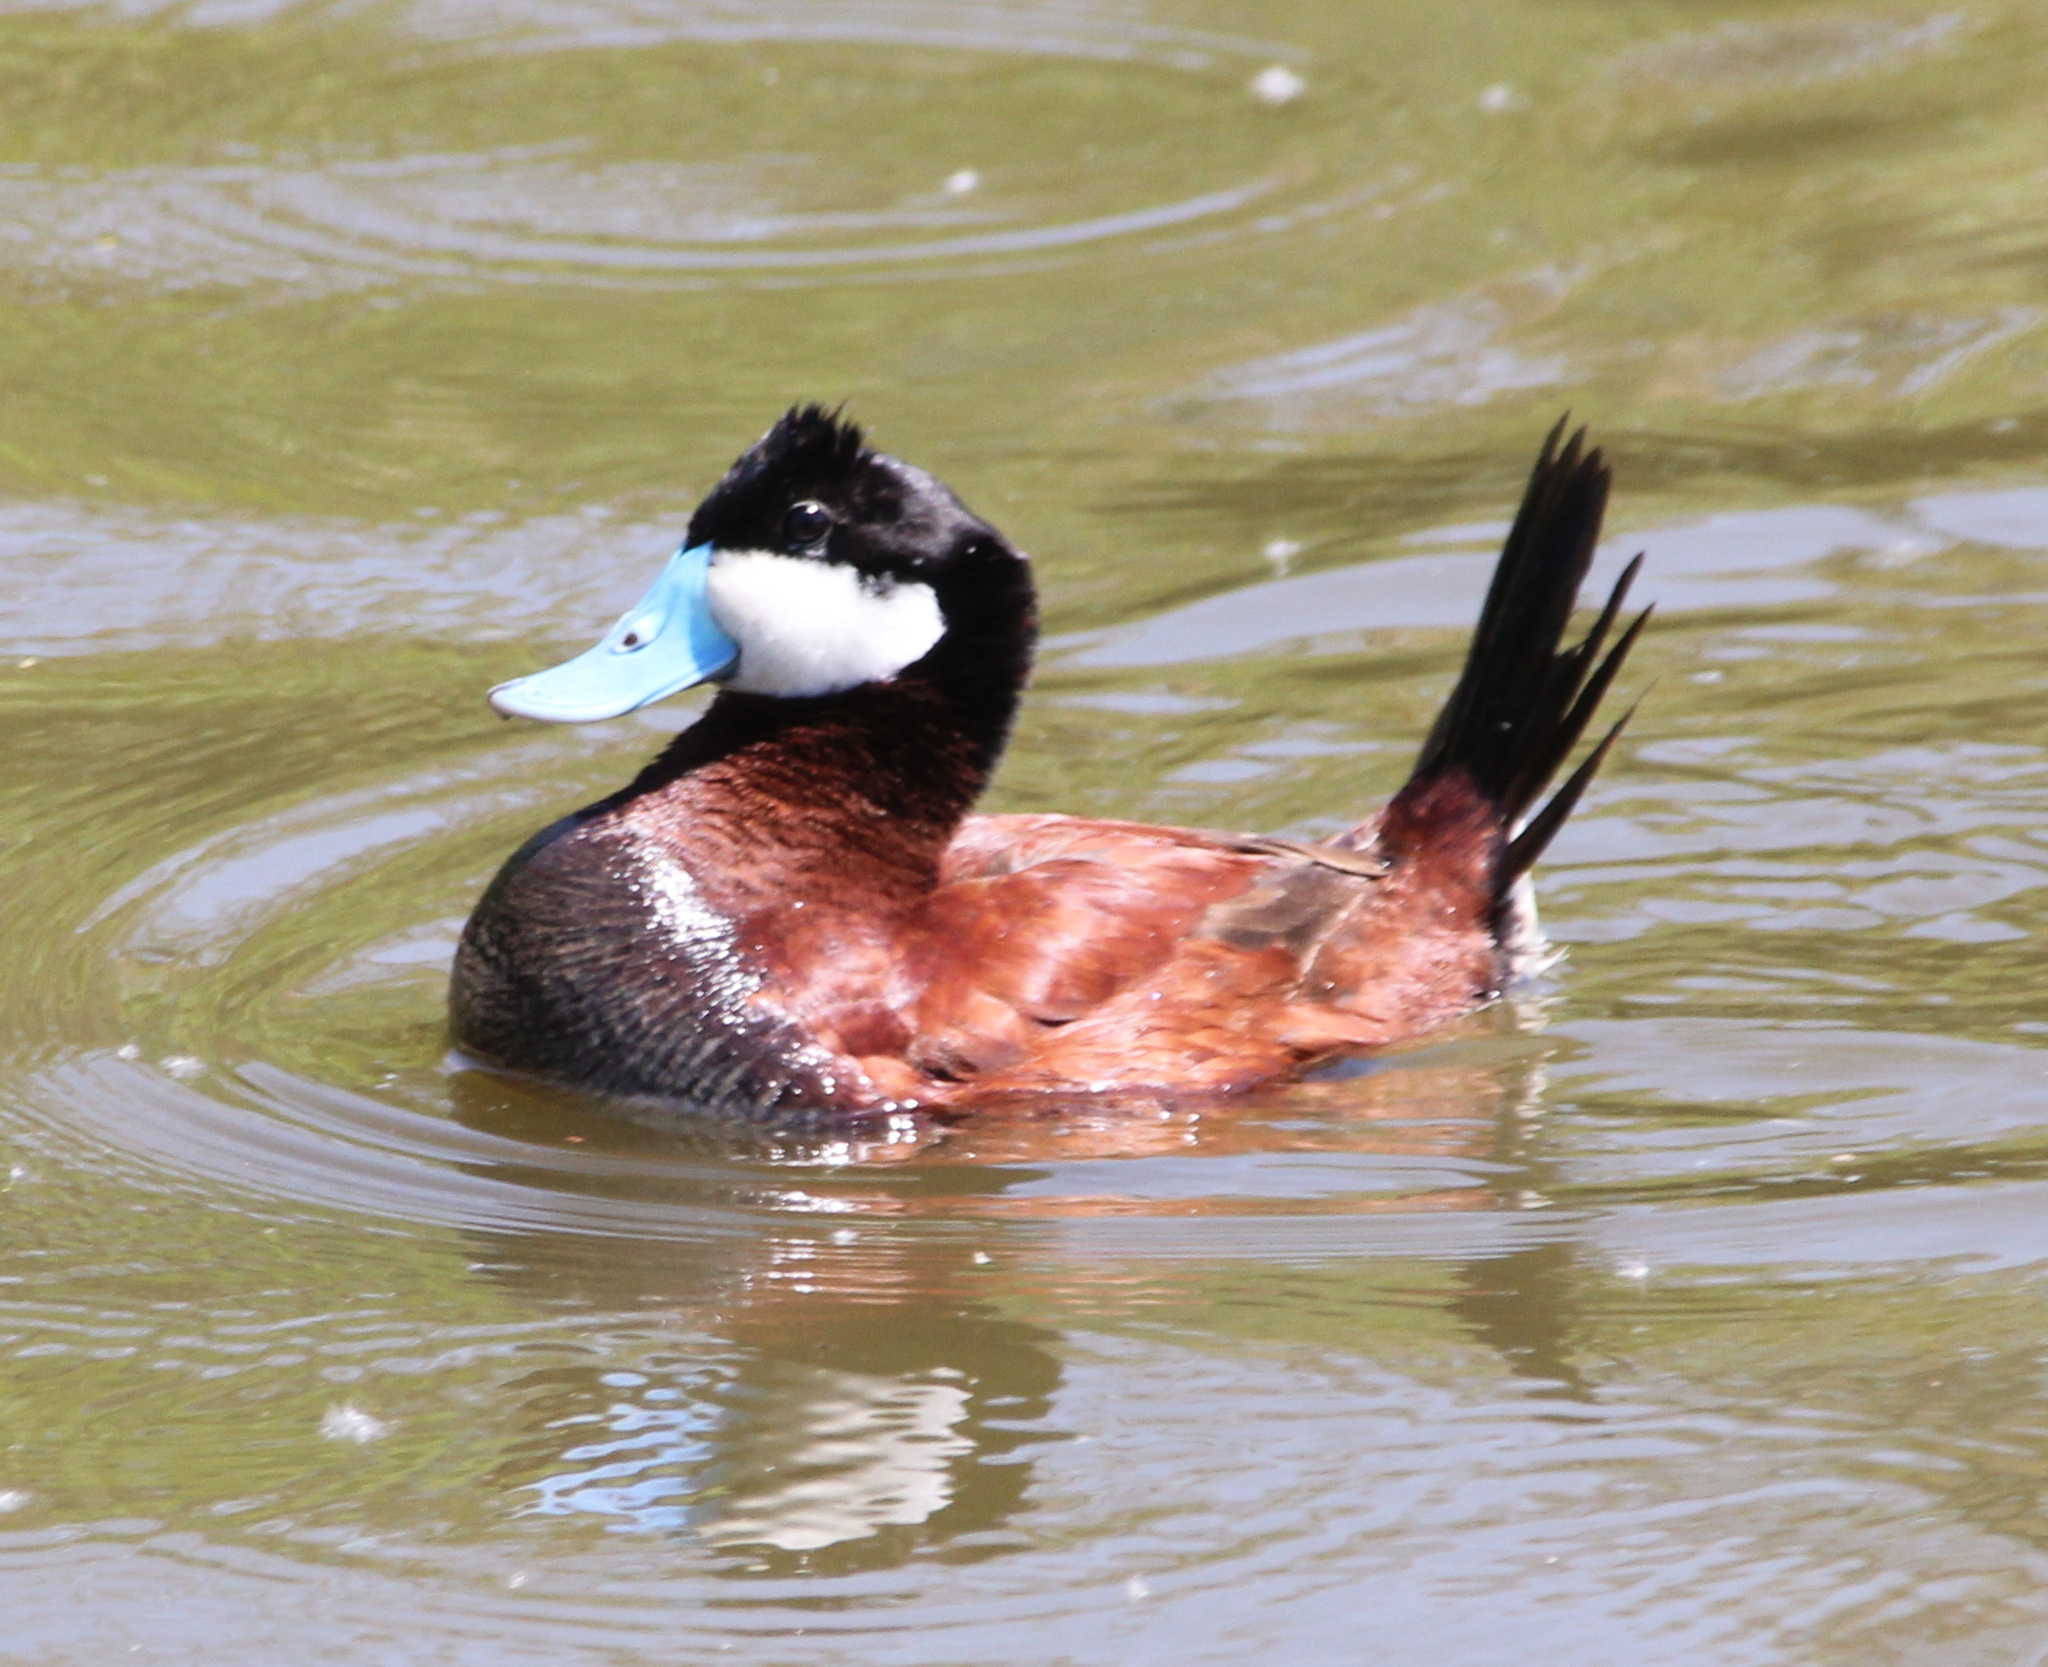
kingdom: Animalia
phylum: Chordata
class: Aves
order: Anseriformes
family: Anatidae
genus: Oxyura
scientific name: Oxyura jamaicensis
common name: Ruddy duck
